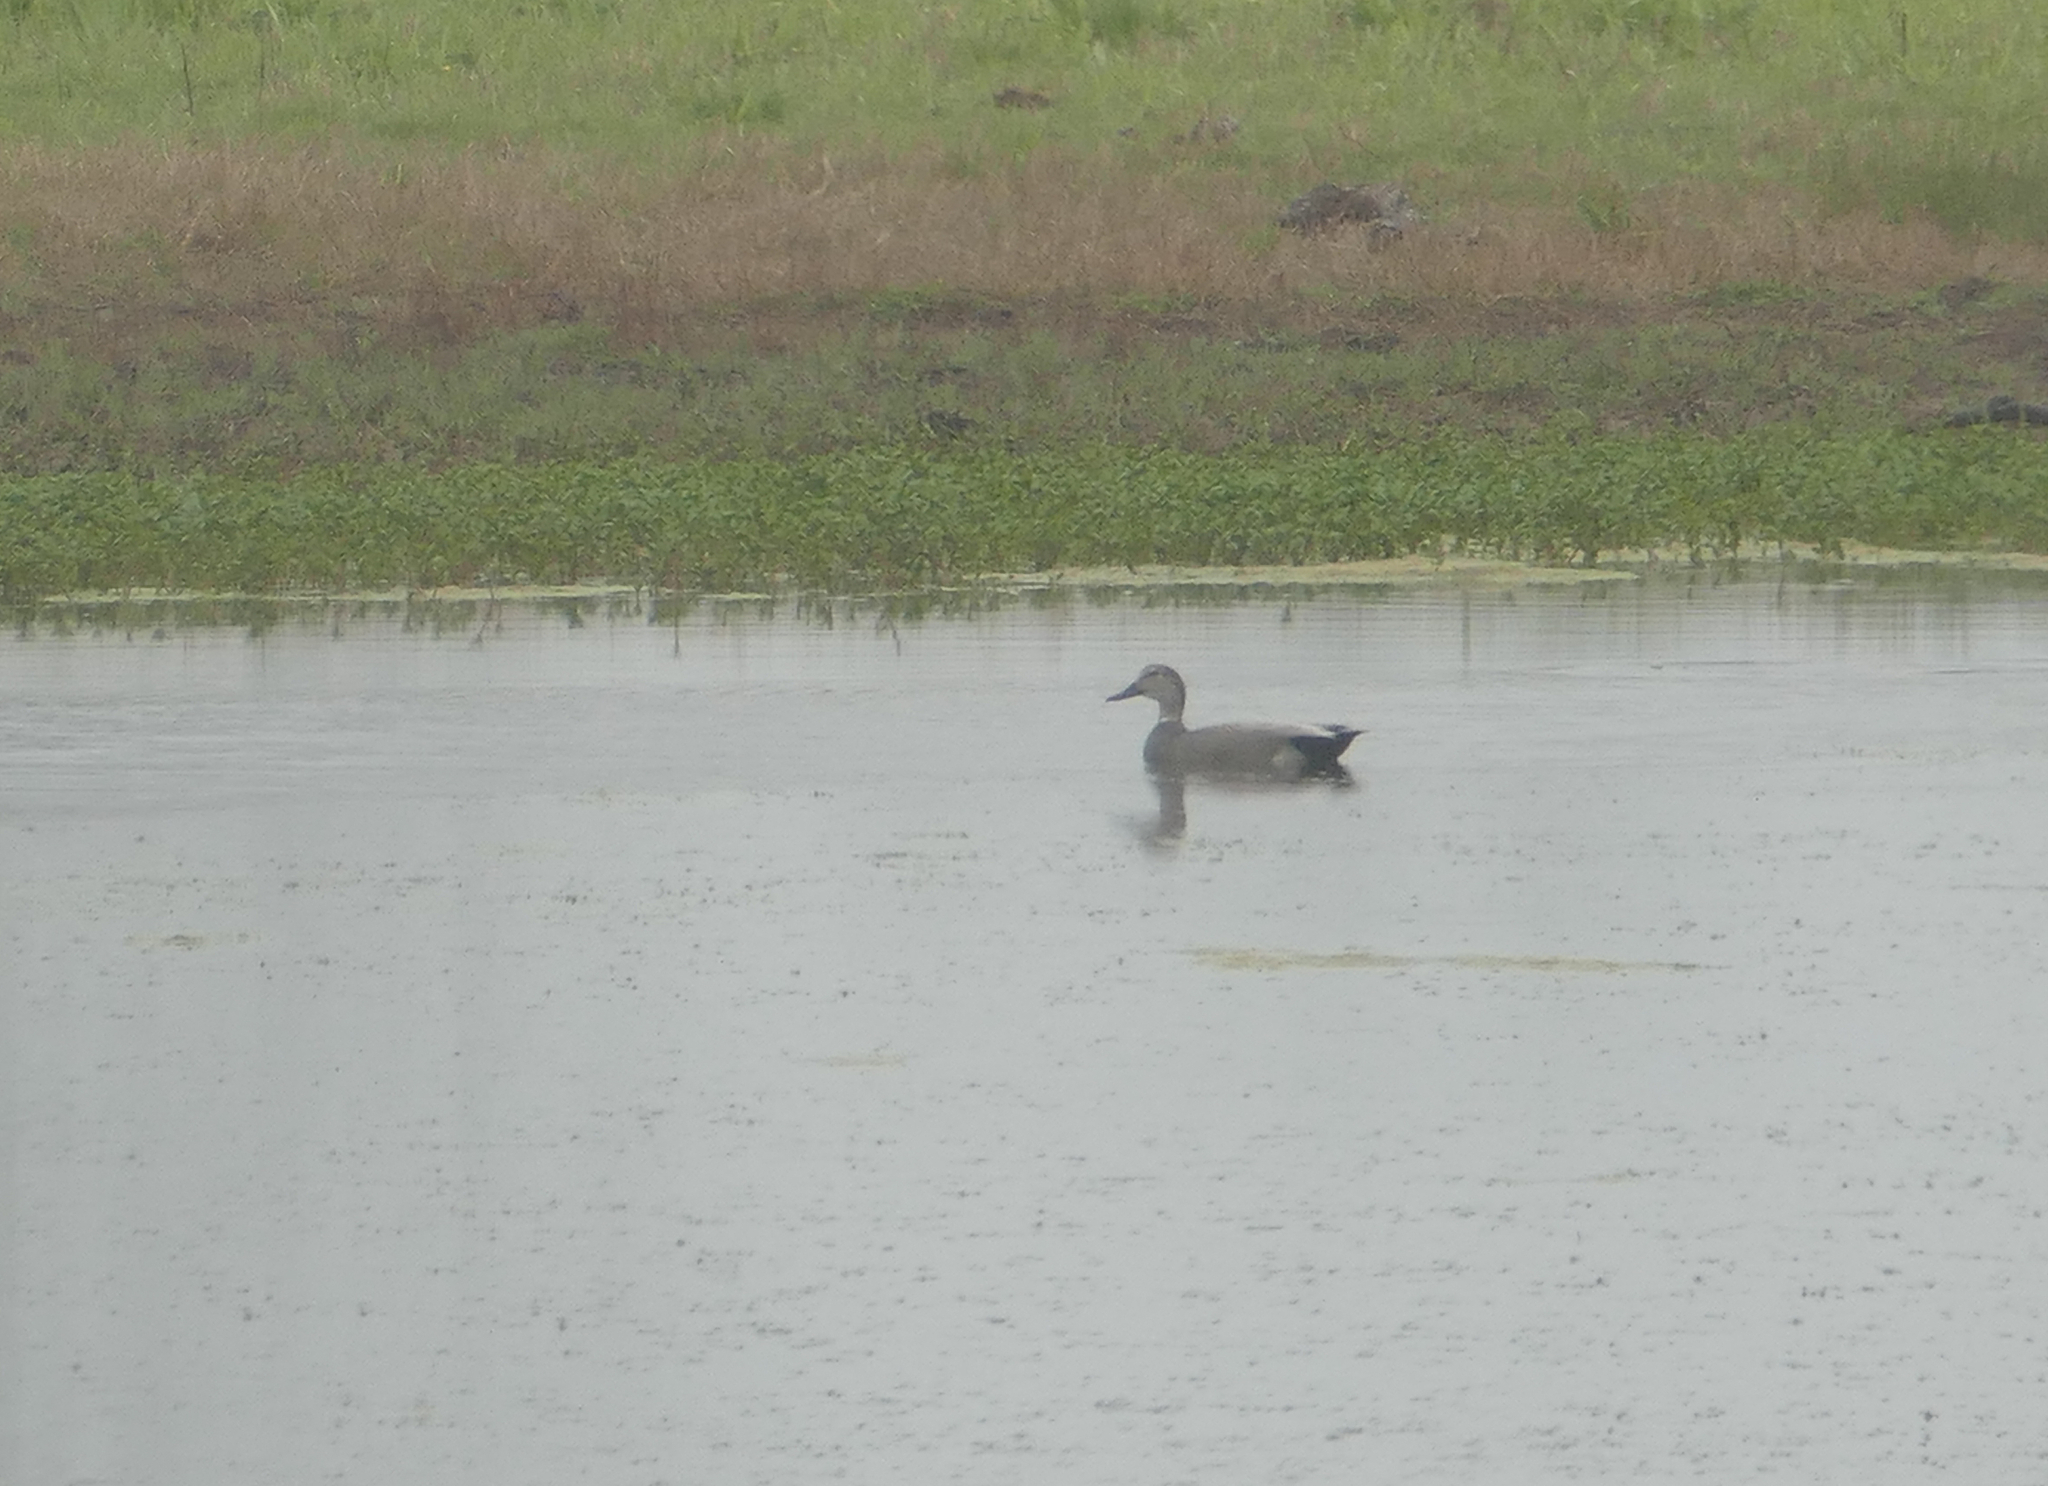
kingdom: Animalia
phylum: Chordata
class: Aves
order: Anseriformes
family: Anatidae
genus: Mareca
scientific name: Mareca strepera
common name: Gadwall
